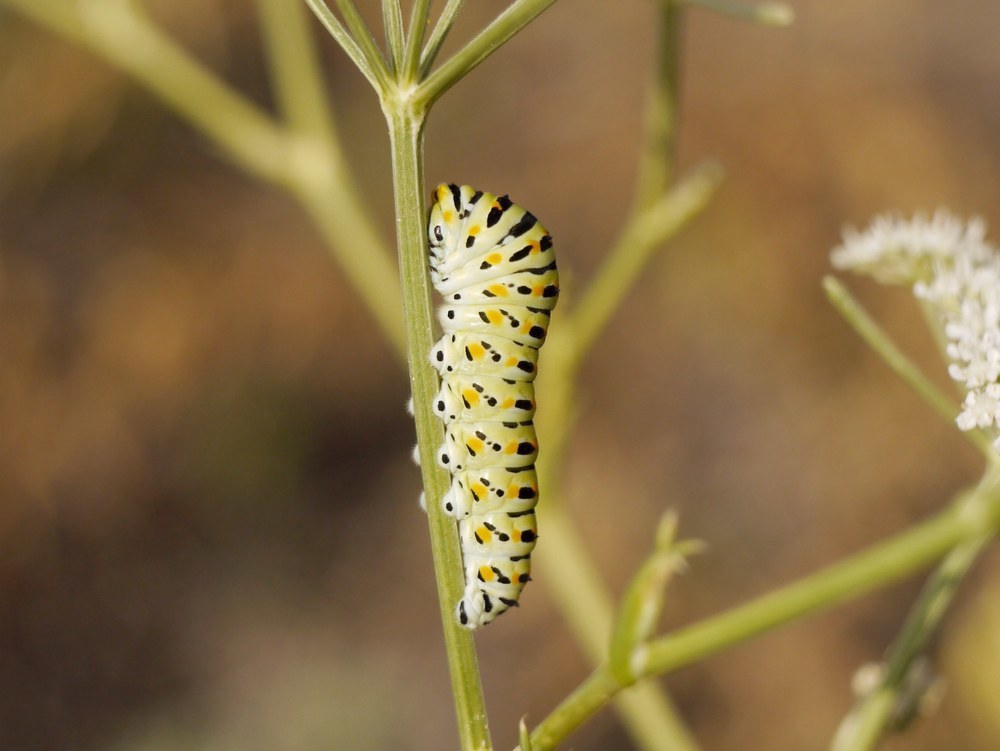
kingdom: Animalia
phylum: Arthropoda
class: Insecta
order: Lepidoptera
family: Papilionidae
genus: Papilio
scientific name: Papilio machaon
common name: Swallowtail
